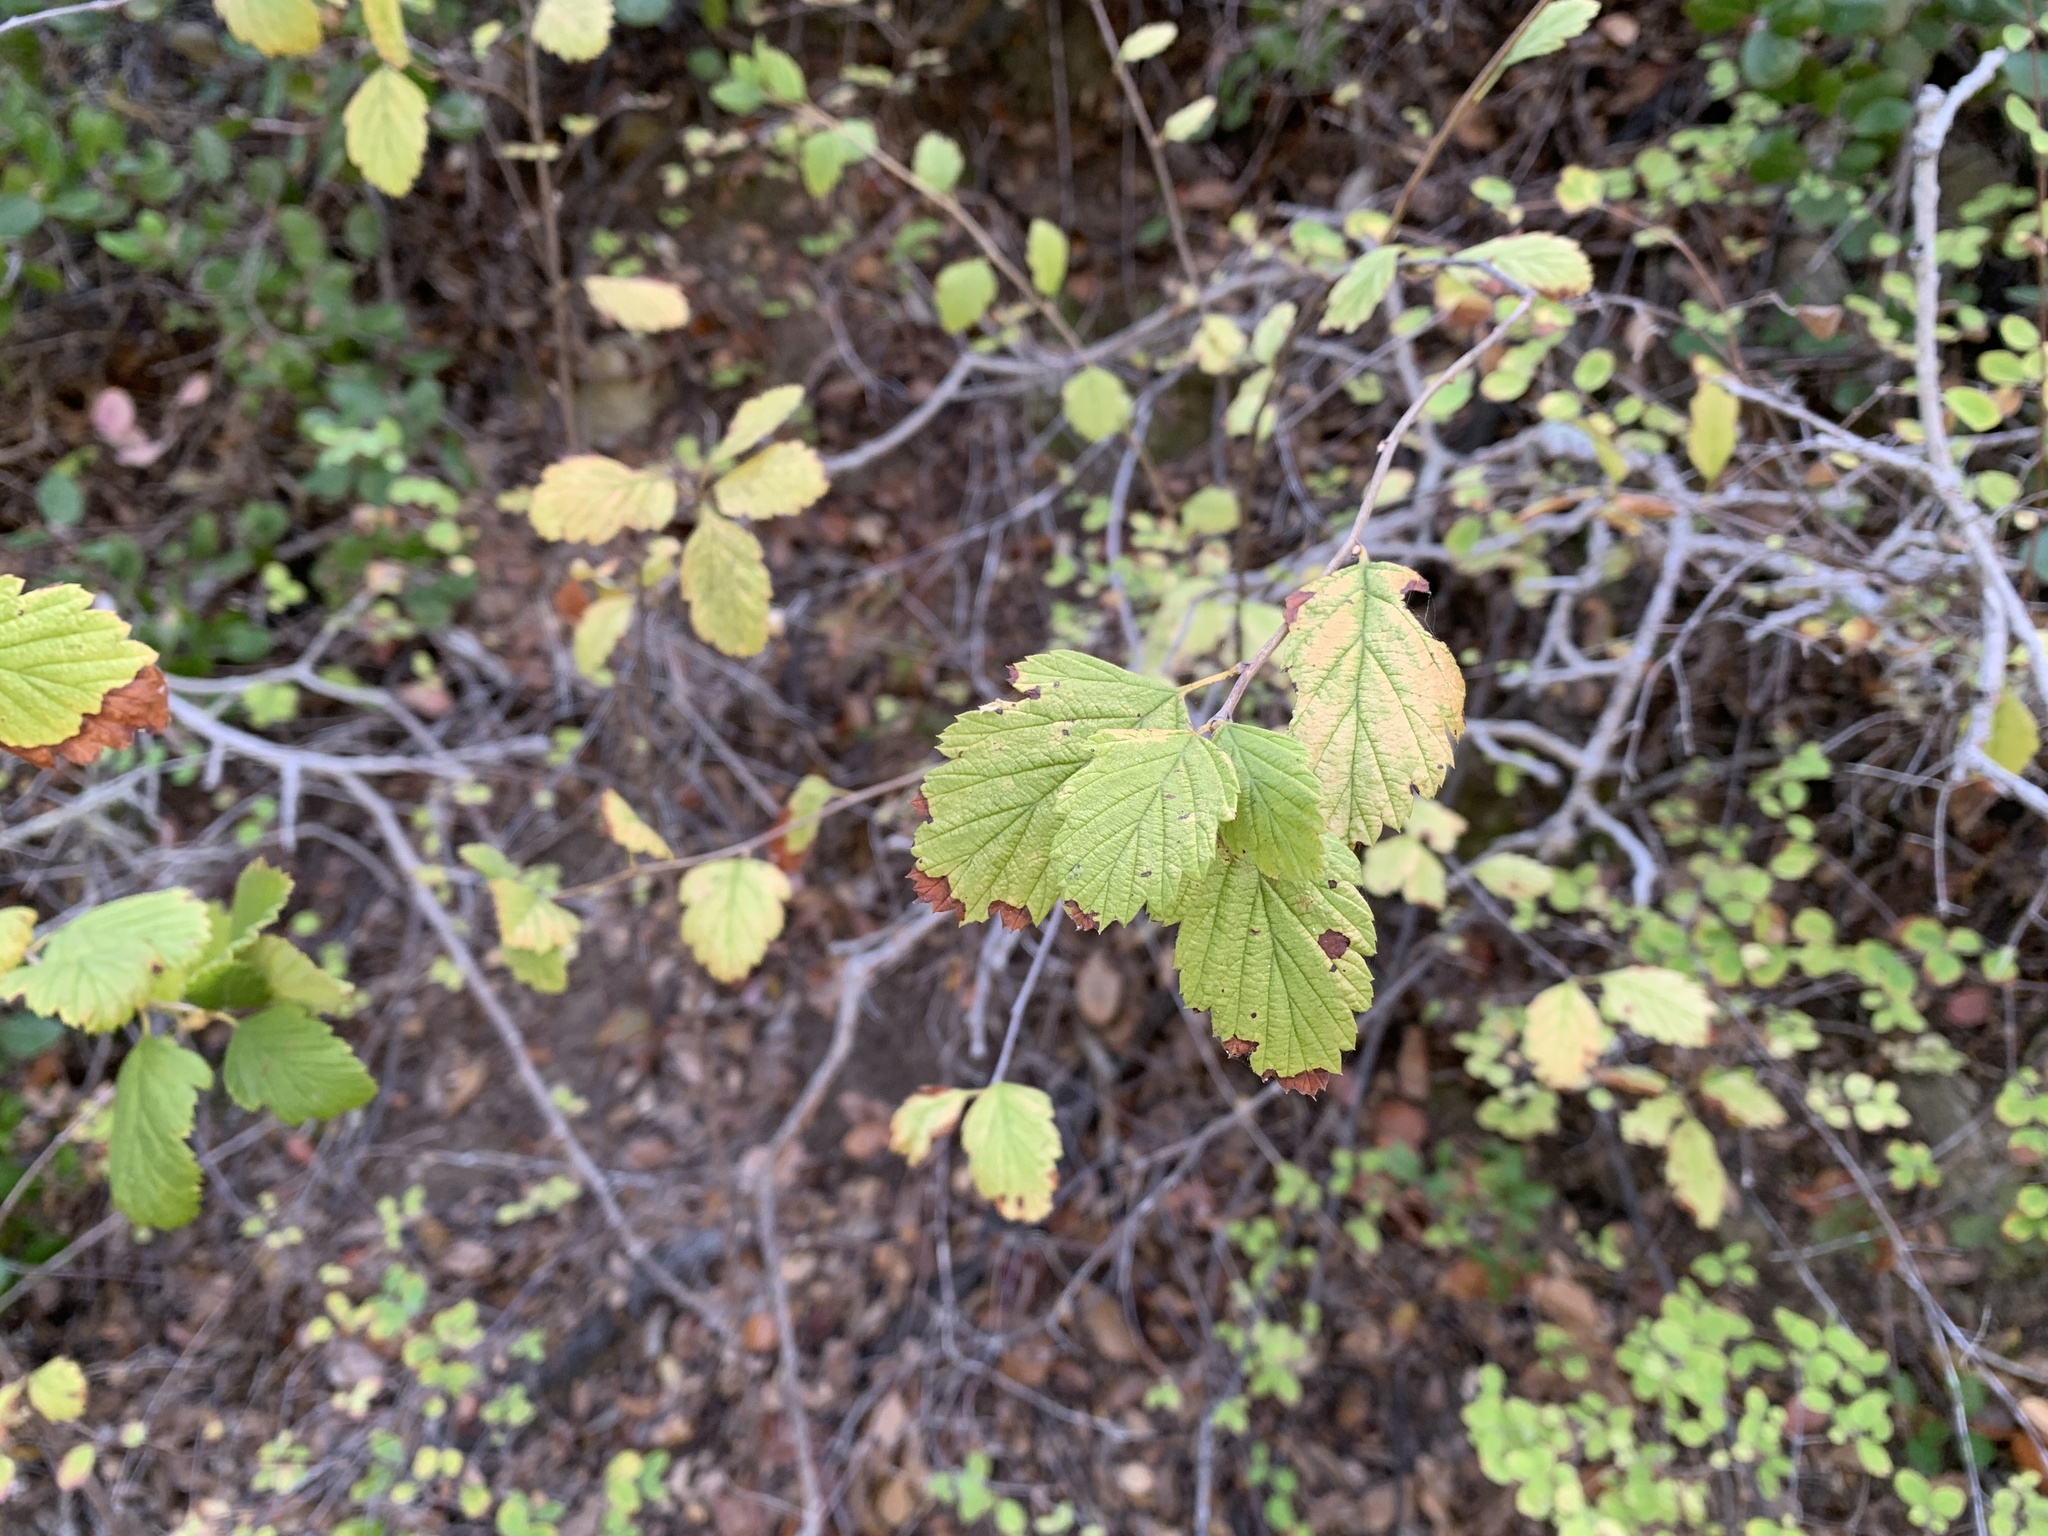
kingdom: Plantae
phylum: Tracheophyta
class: Magnoliopsida
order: Rosales
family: Rosaceae
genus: Holodiscus
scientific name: Holodiscus discolor
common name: Oceanspray
